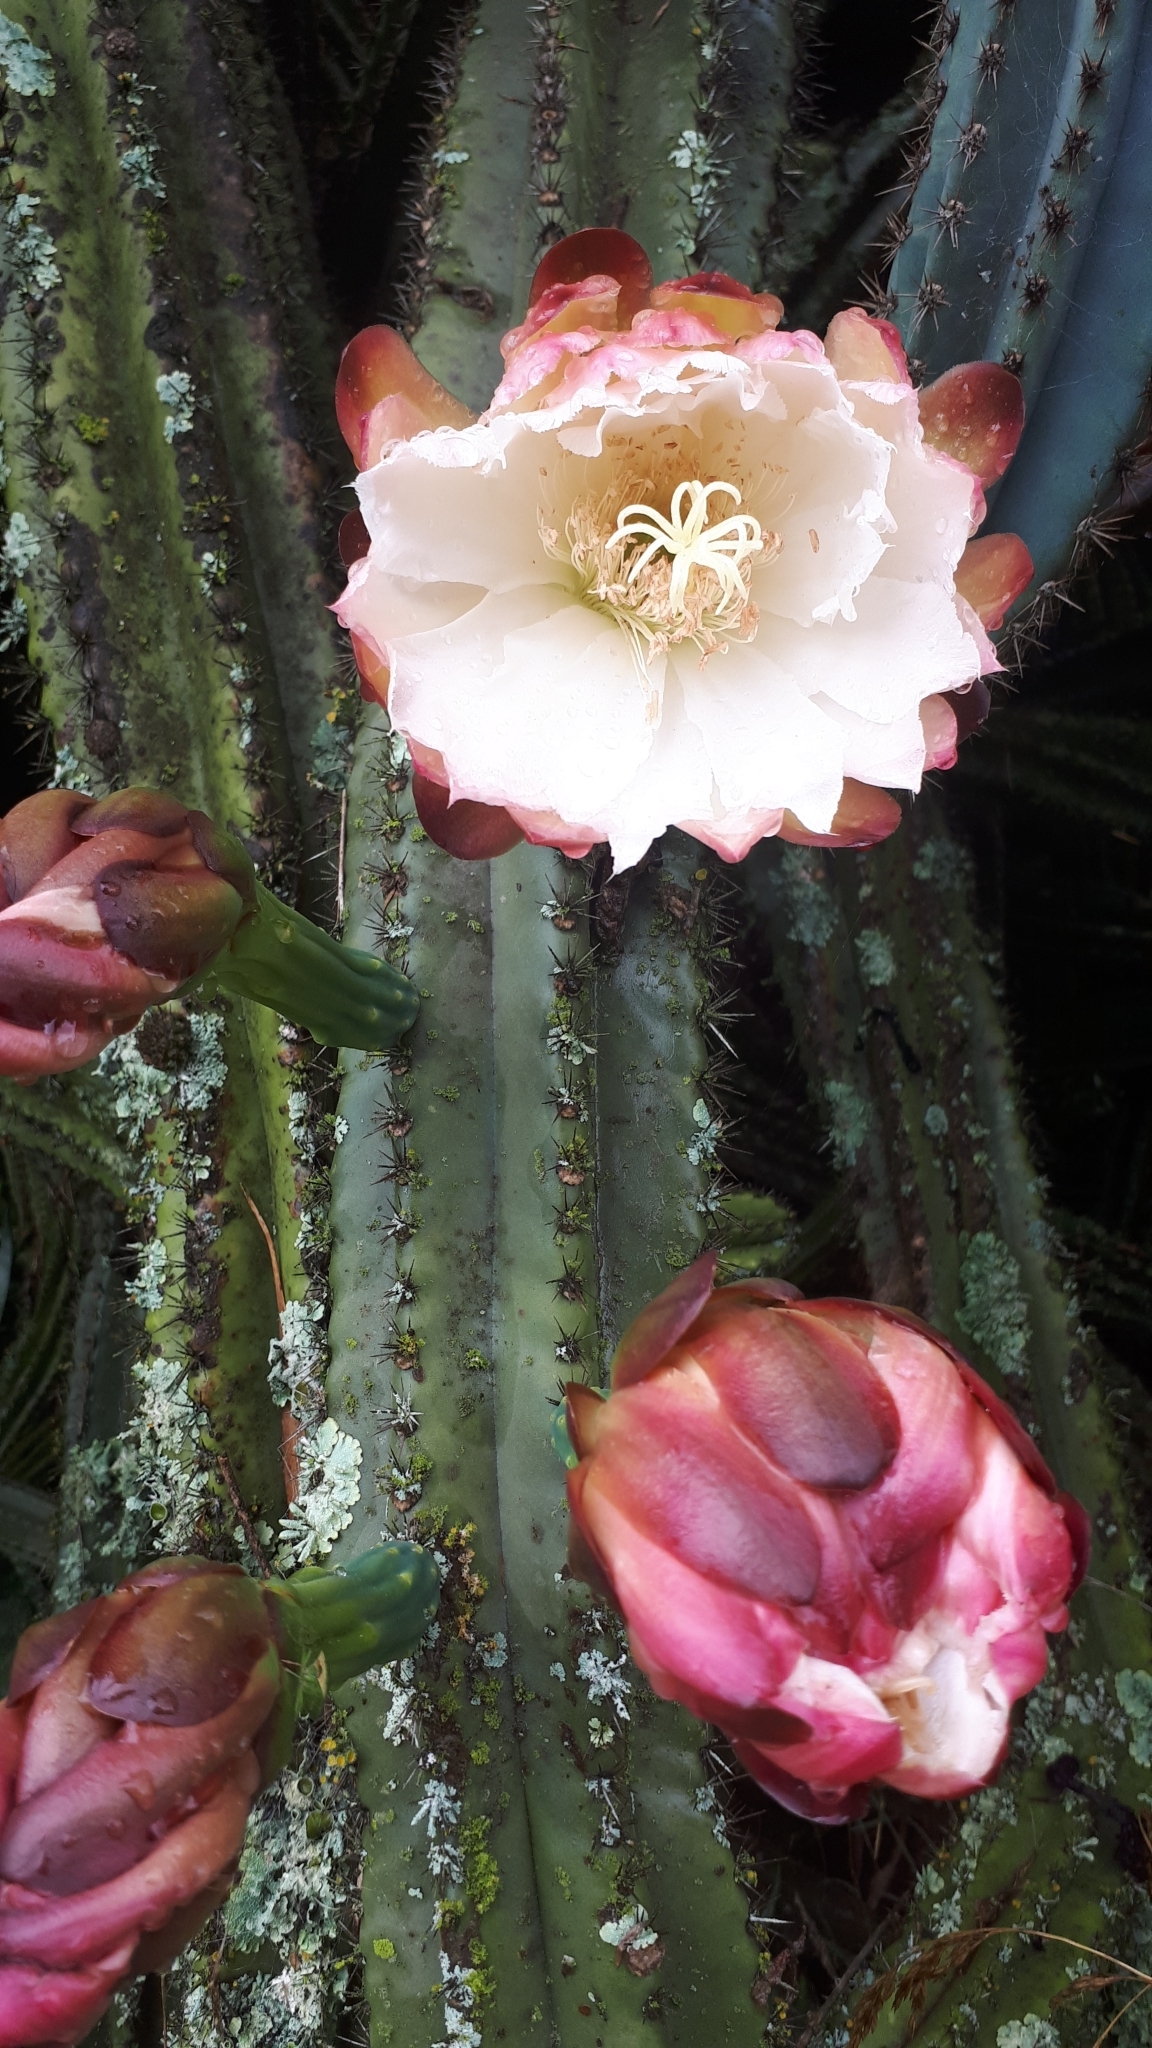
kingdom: Plantae
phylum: Tracheophyta
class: Magnoliopsida
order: Caryophyllales
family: Cactaceae
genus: Cereus
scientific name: Cereus hildmannianus
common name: Hedge cactus
